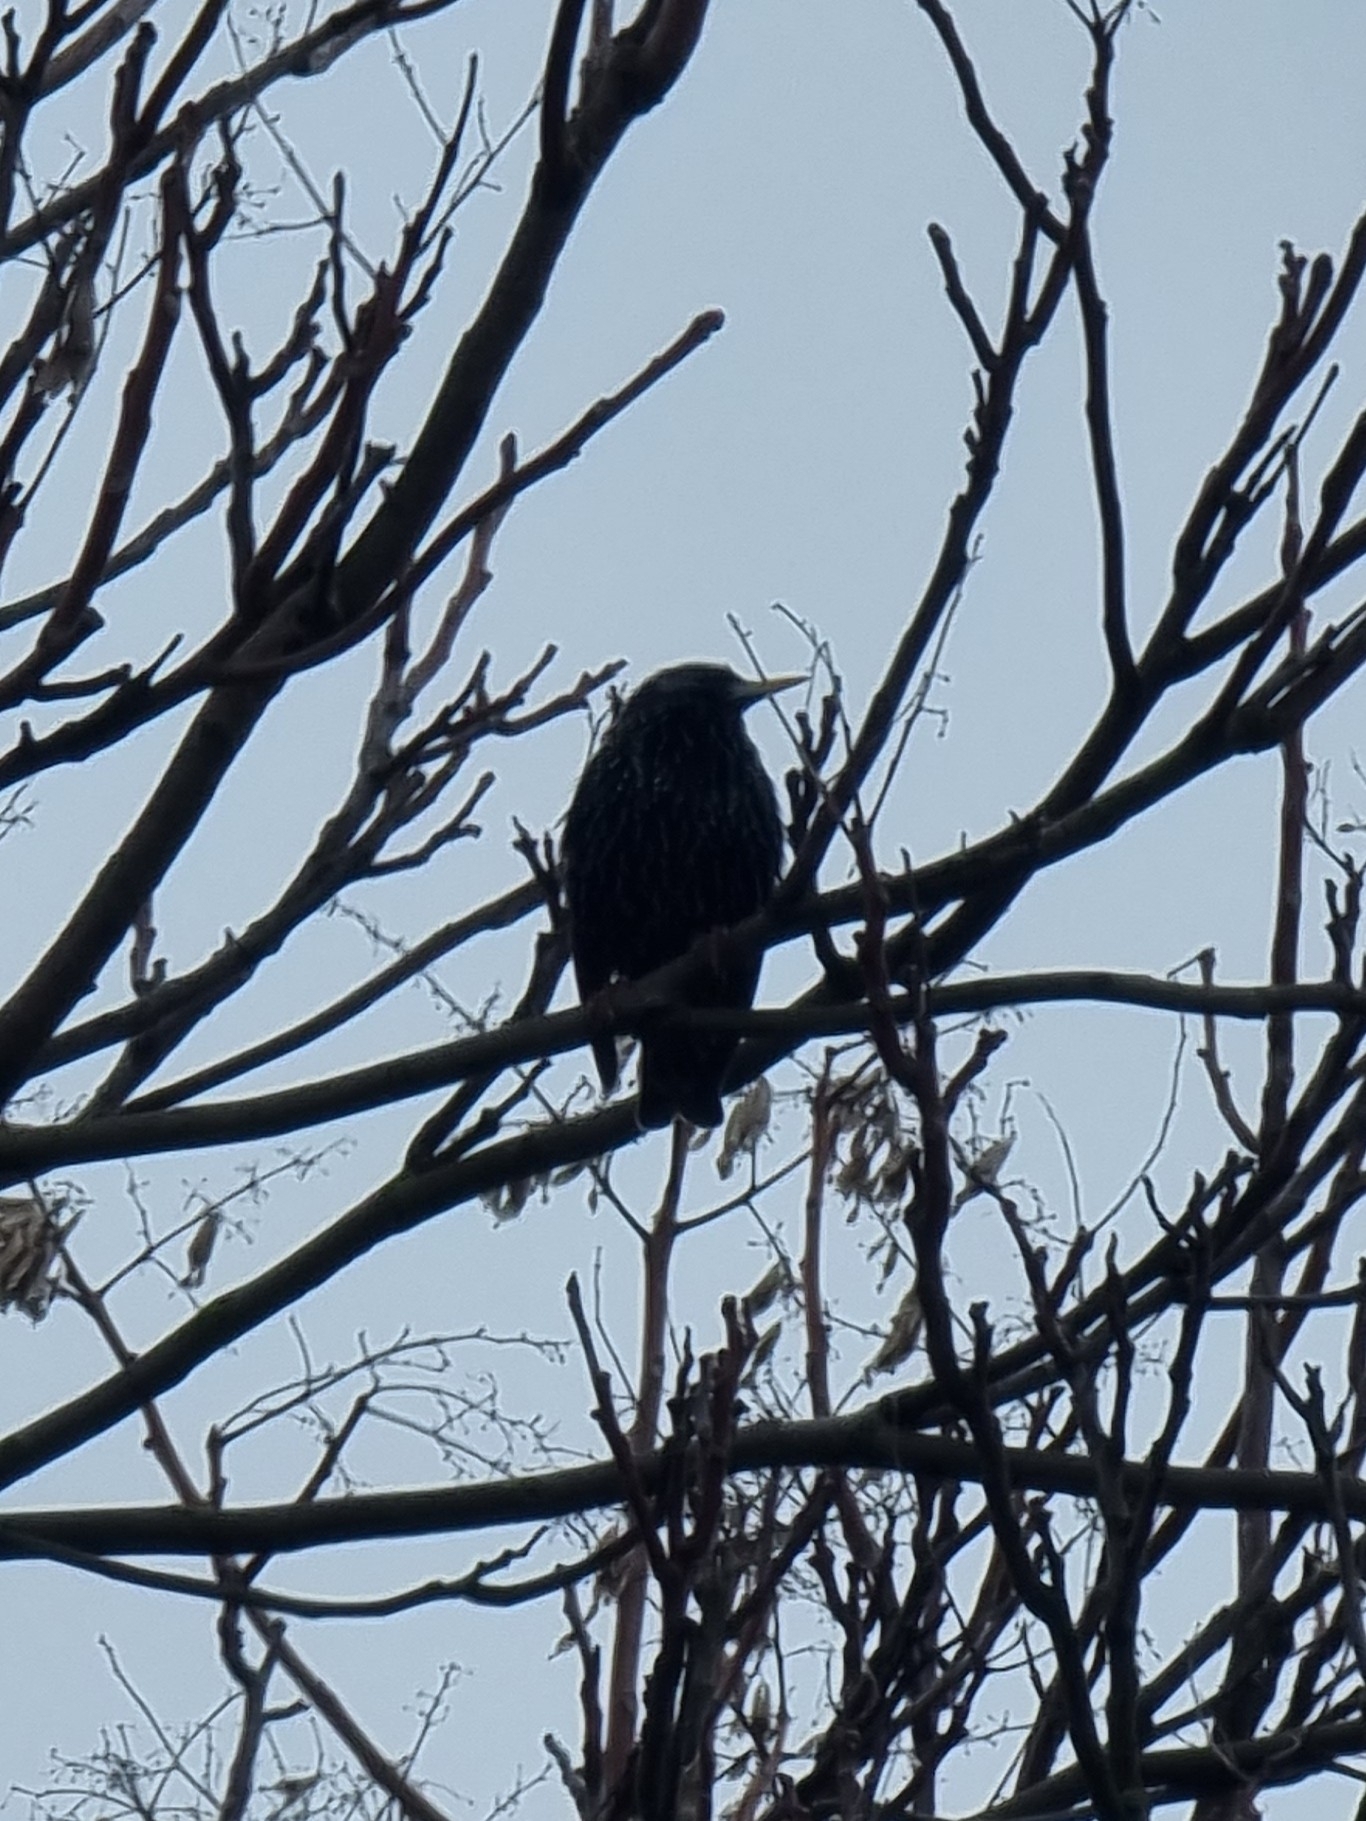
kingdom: Animalia
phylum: Chordata
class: Aves
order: Passeriformes
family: Sturnidae
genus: Sturnus
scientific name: Sturnus vulgaris
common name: Common starling
